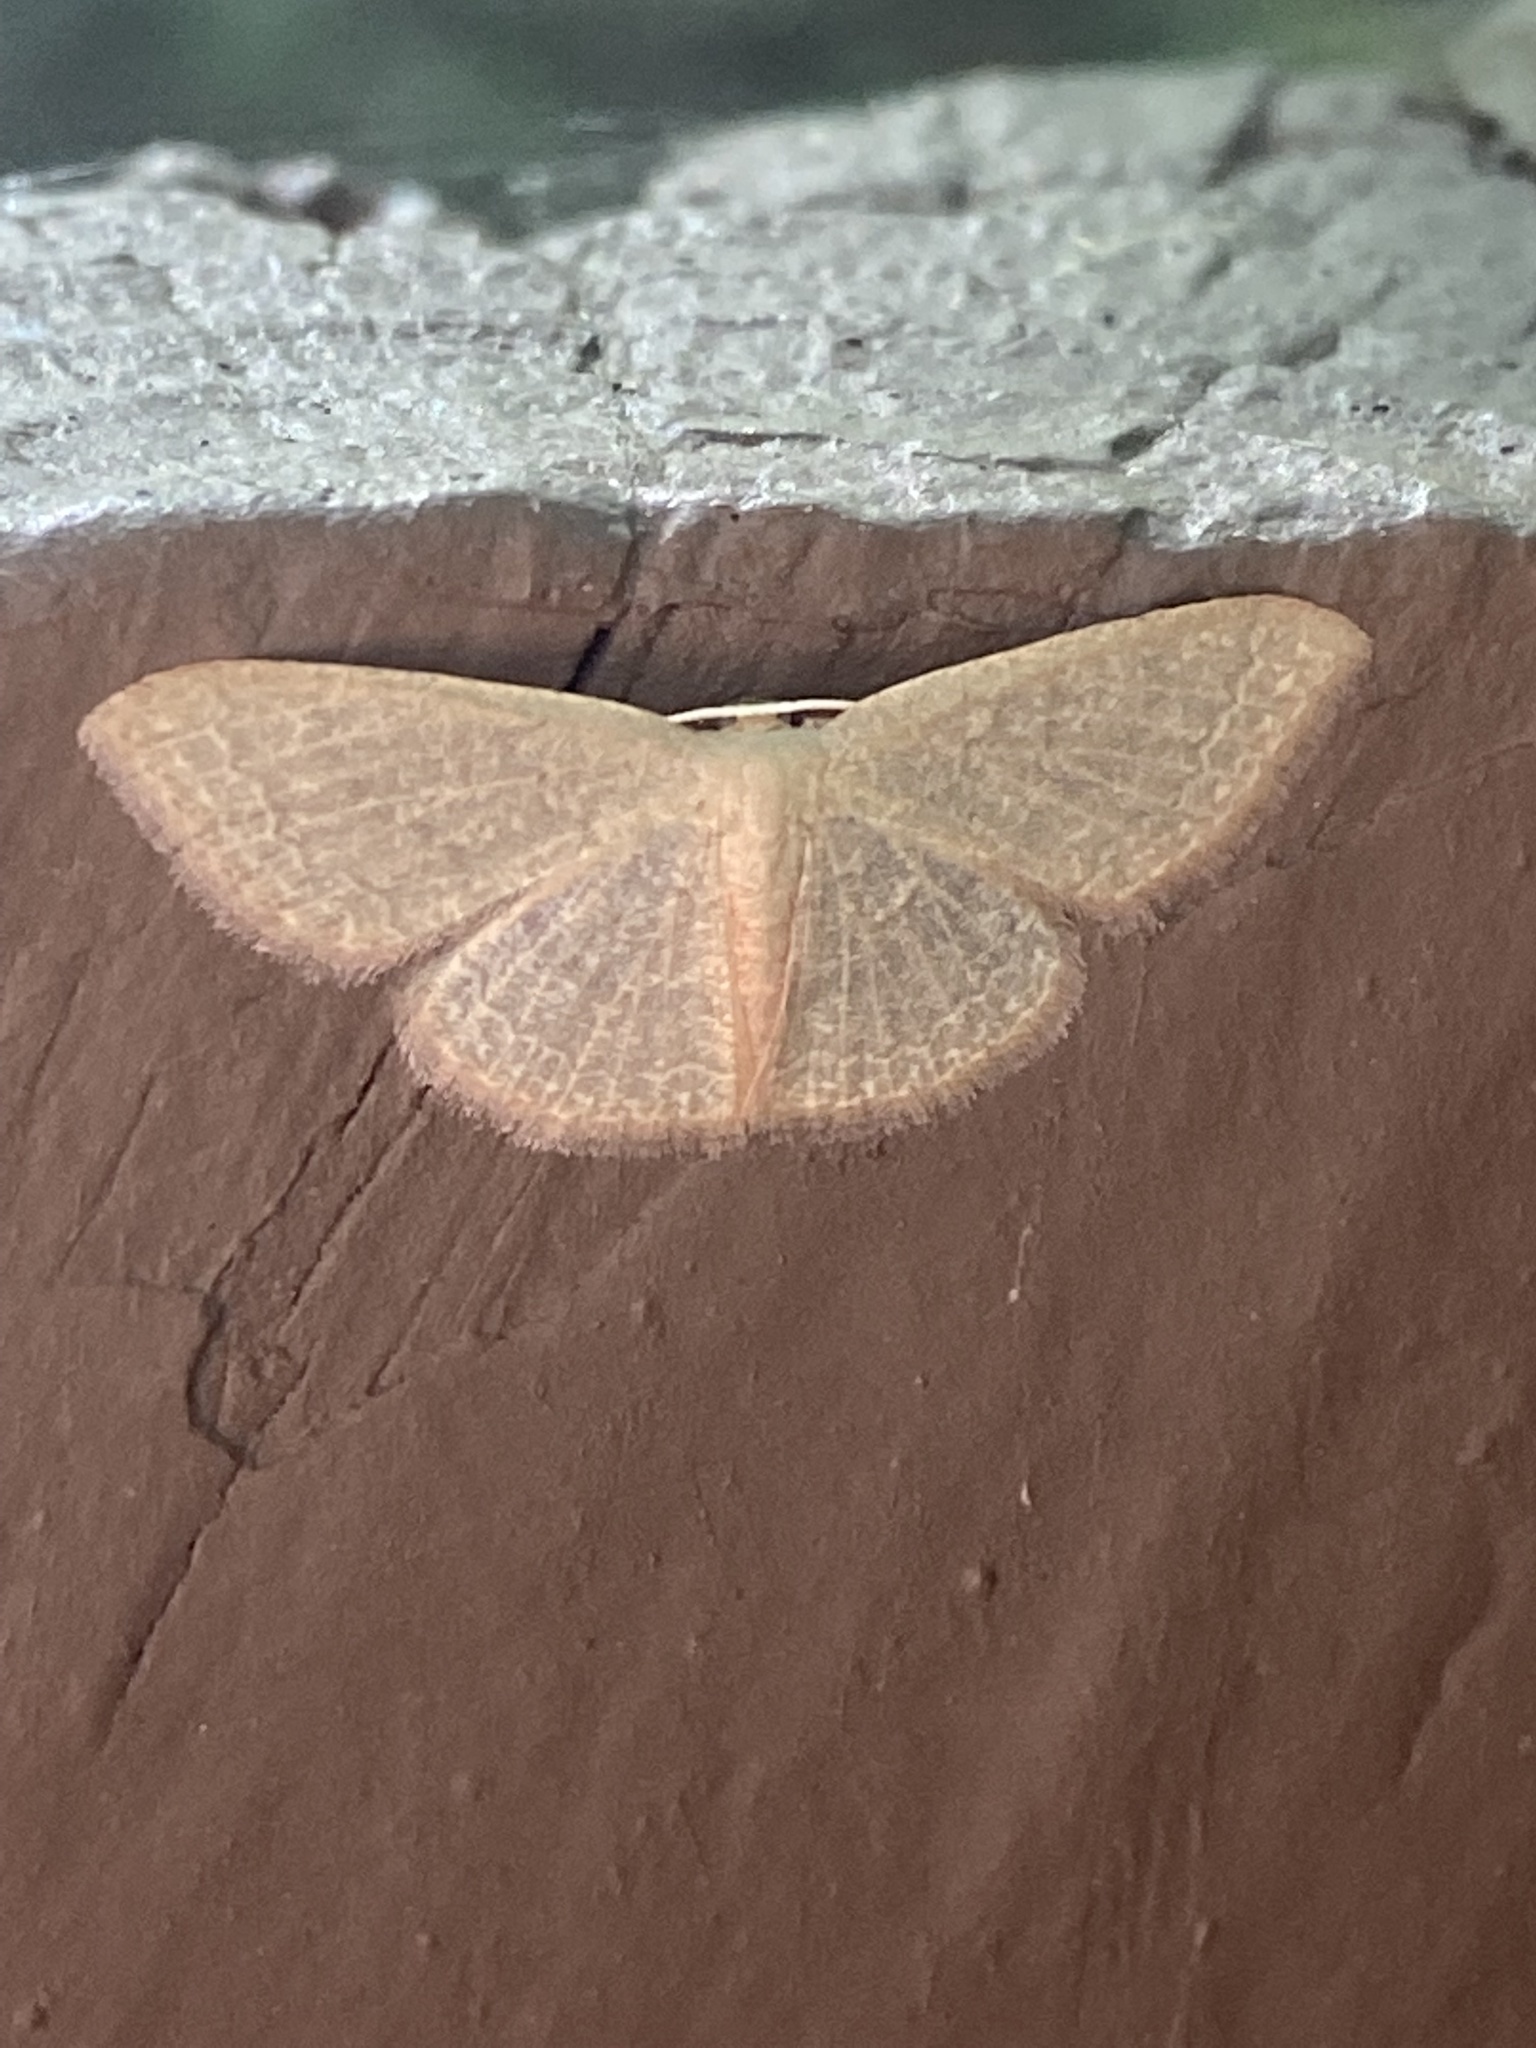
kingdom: Animalia
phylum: Arthropoda
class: Insecta
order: Lepidoptera
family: Geometridae
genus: Pleuroprucha
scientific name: Pleuroprucha insulsaria
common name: Common tan wave
